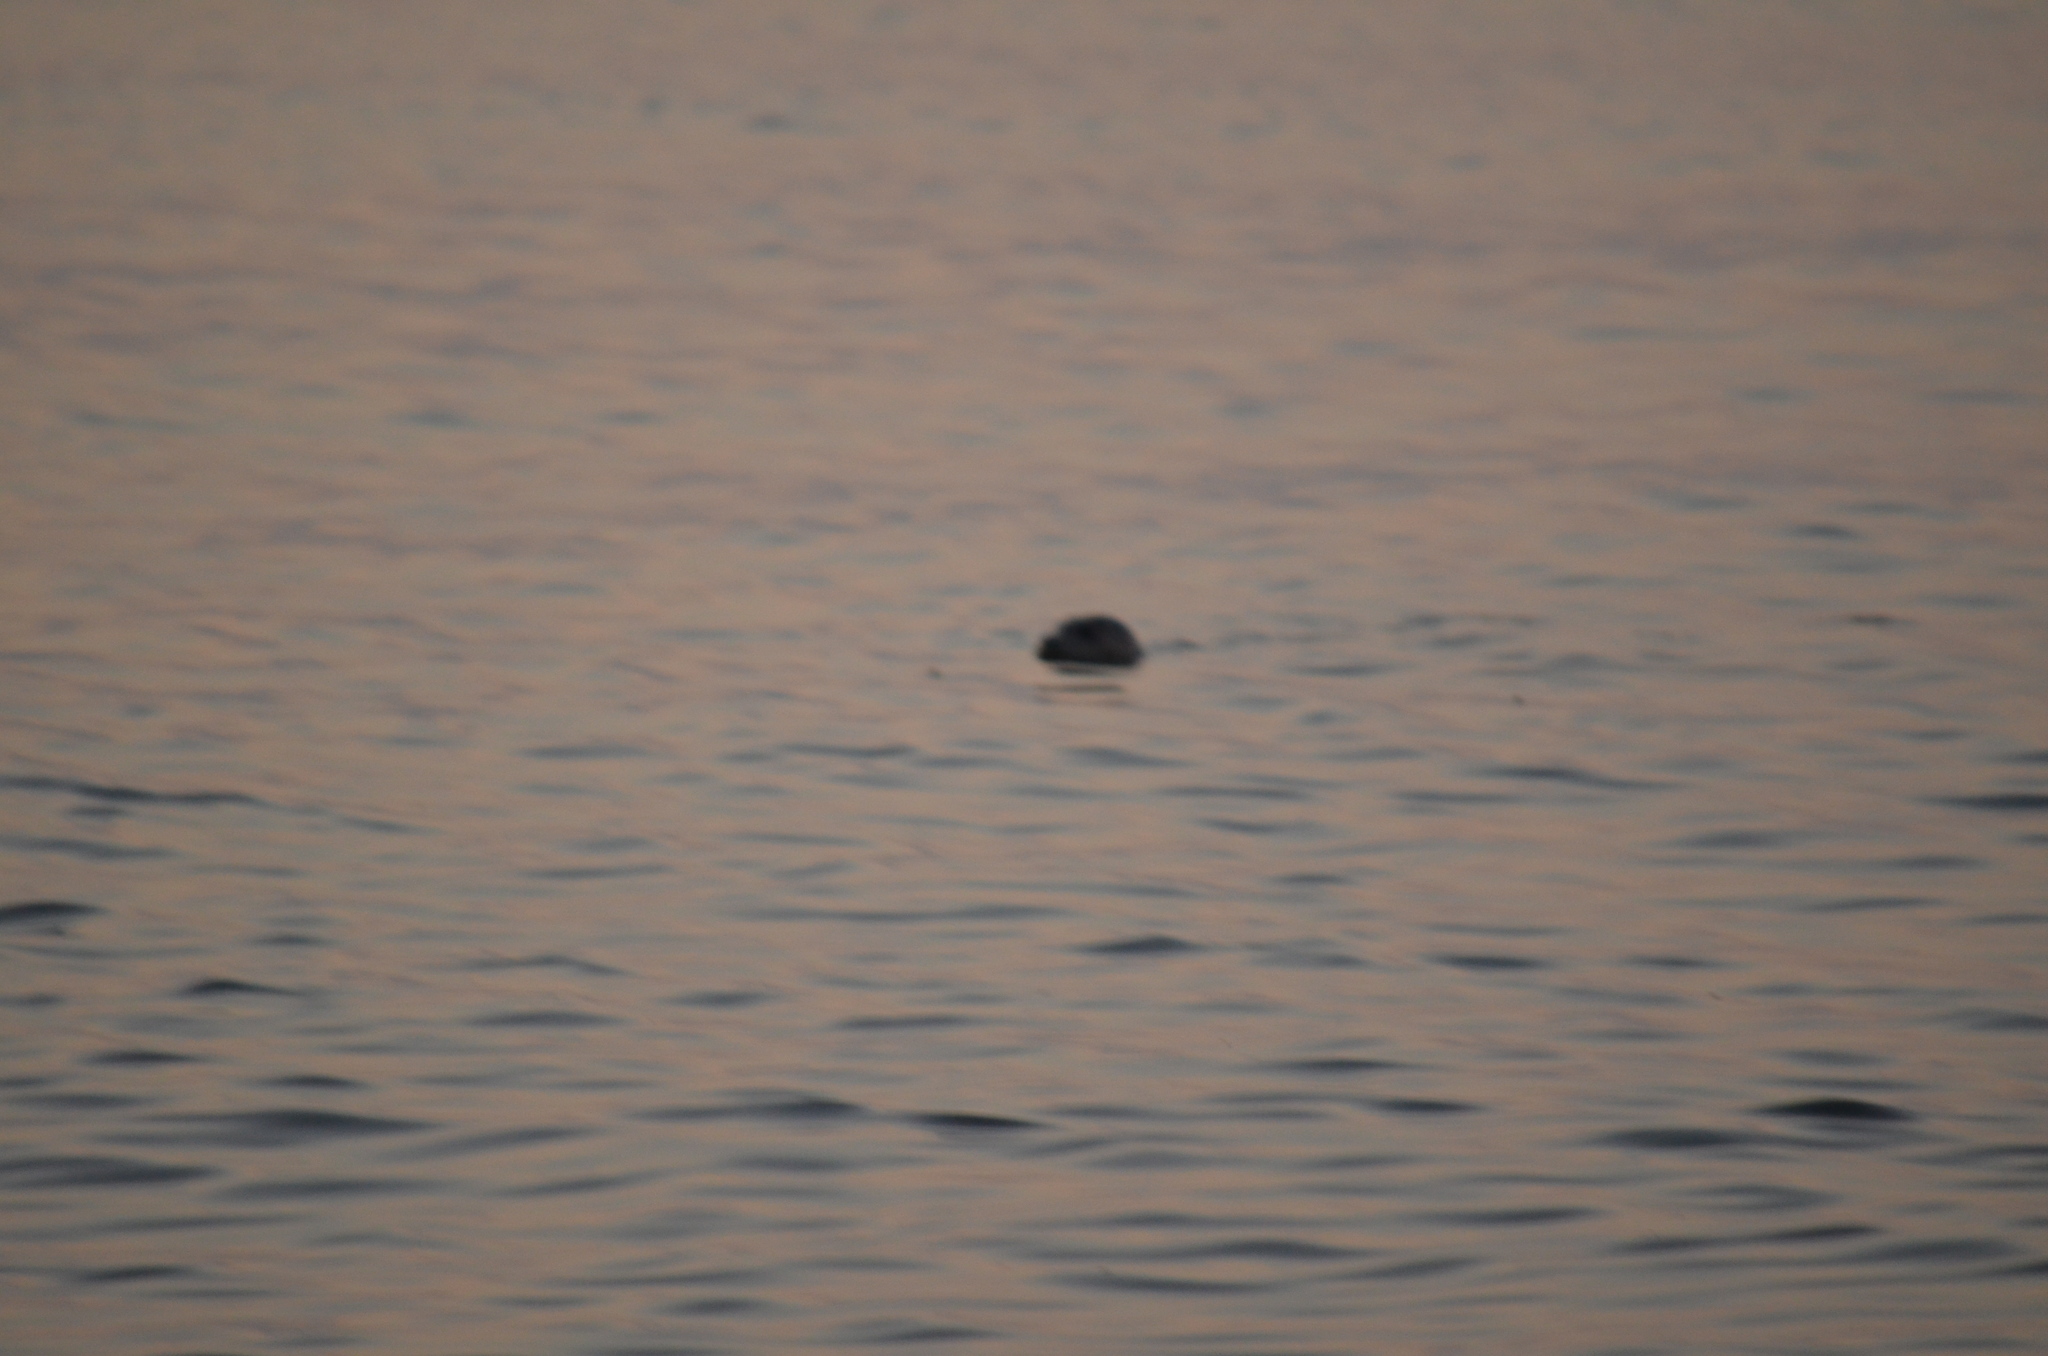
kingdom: Animalia
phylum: Chordata
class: Mammalia
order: Carnivora
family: Phocidae
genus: Phoca
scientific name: Phoca vitulina
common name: Harbor seal
